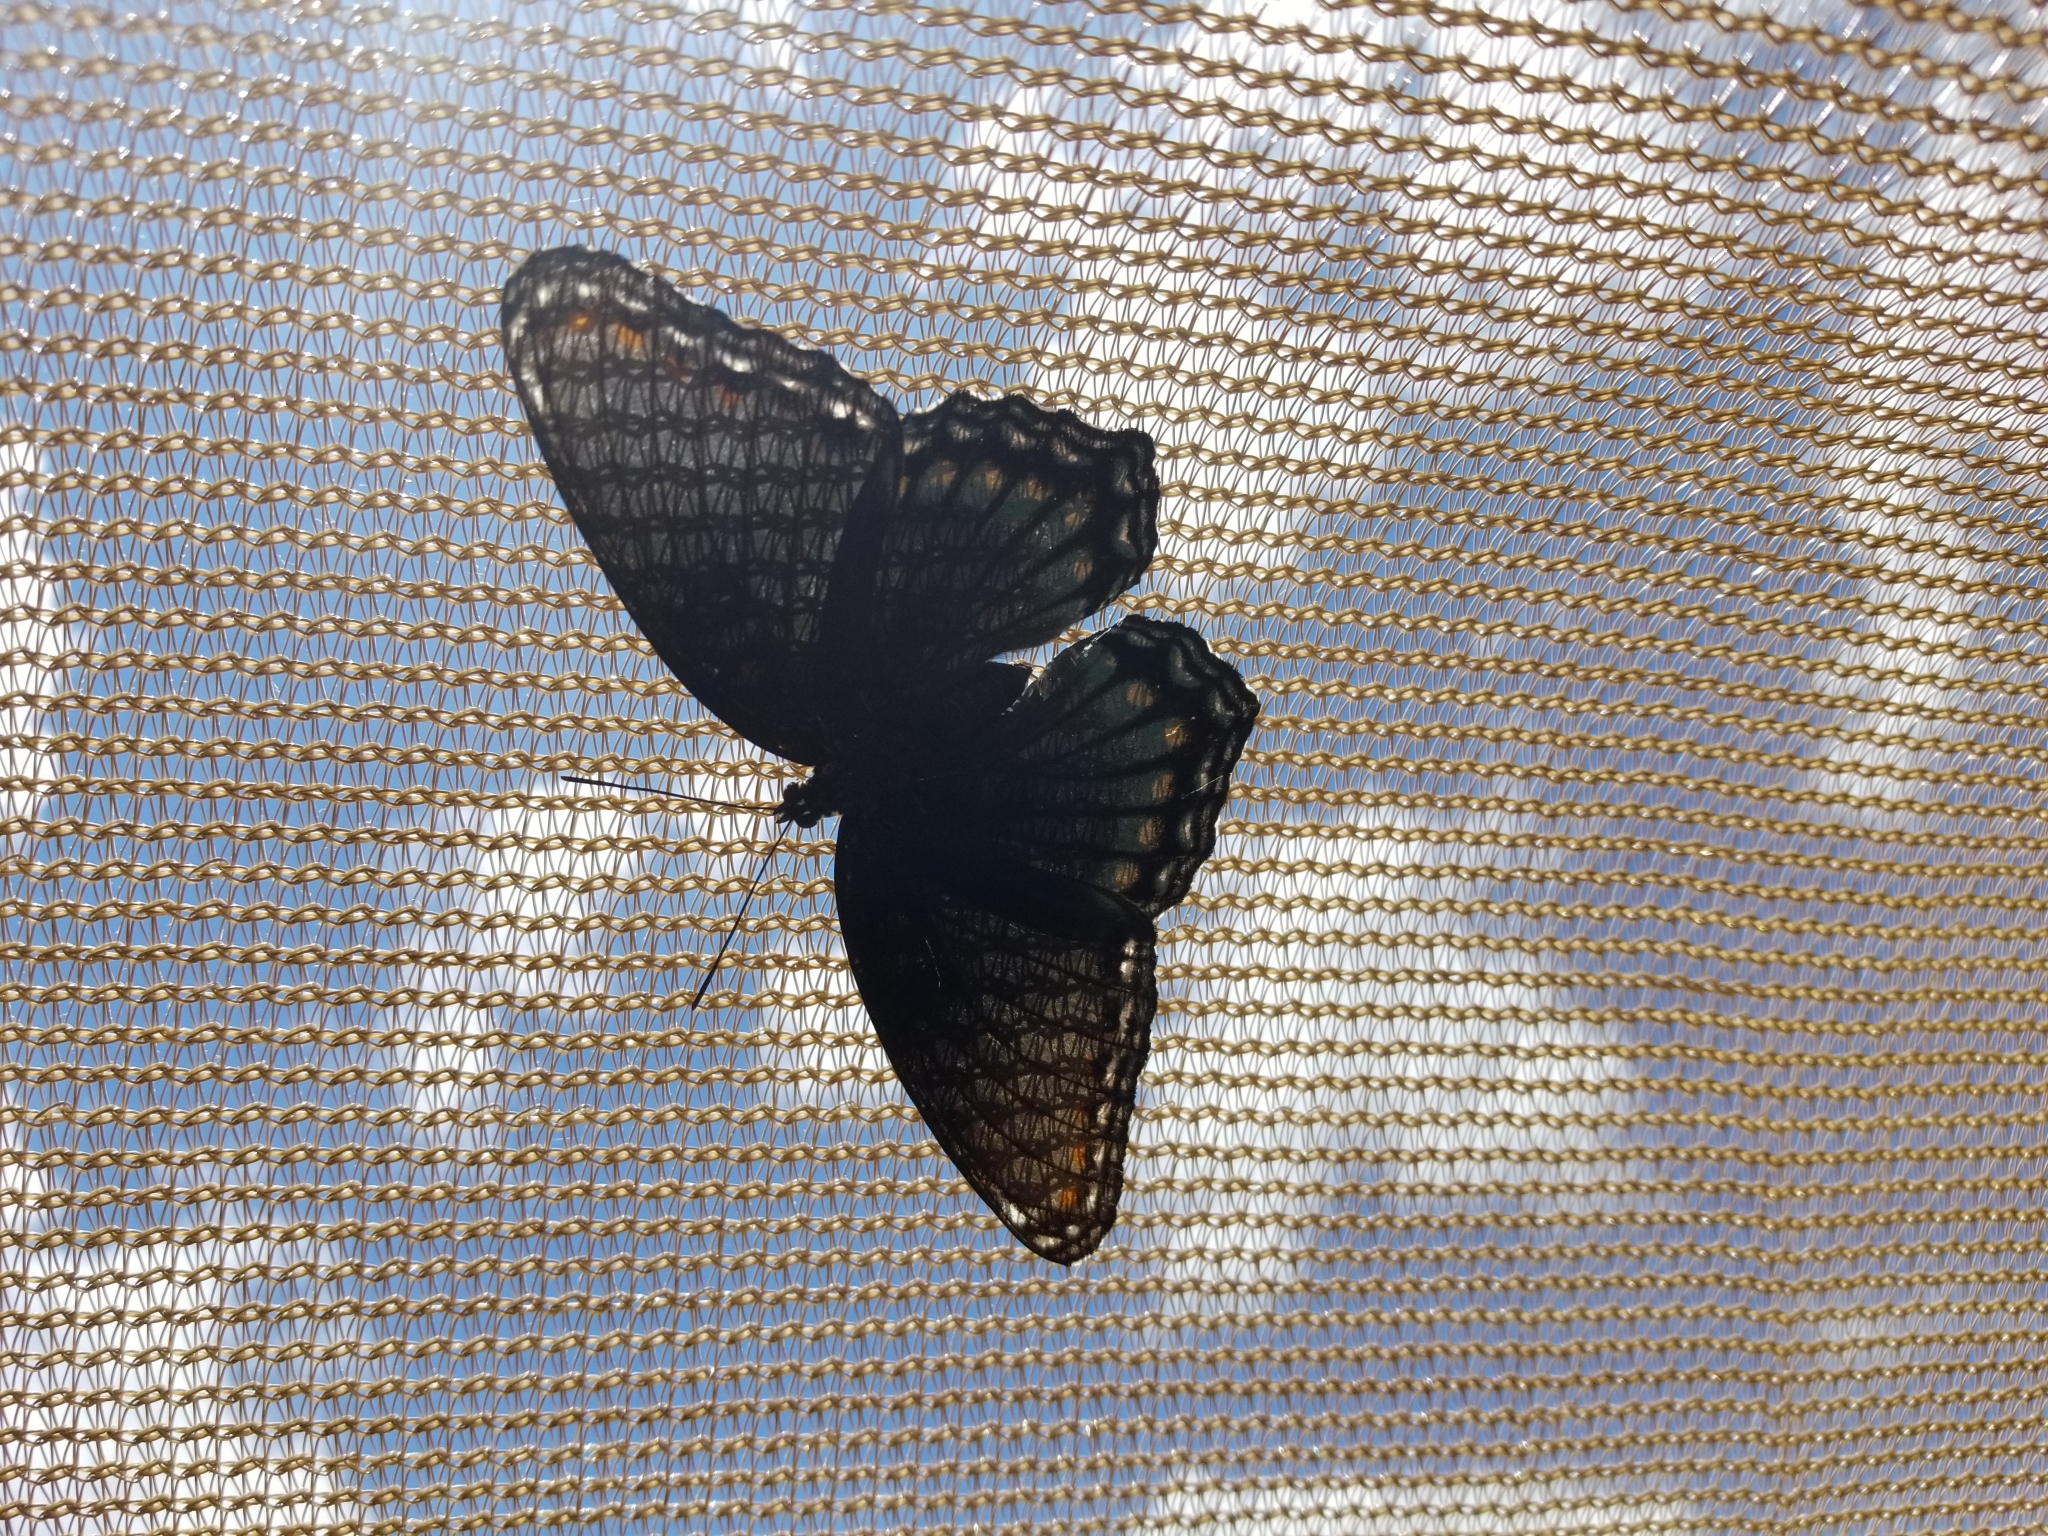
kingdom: Animalia
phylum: Arthropoda
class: Insecta
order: Lepidoptera
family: Nymphalidae
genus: Limenitis
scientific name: Limenitis astyanax
